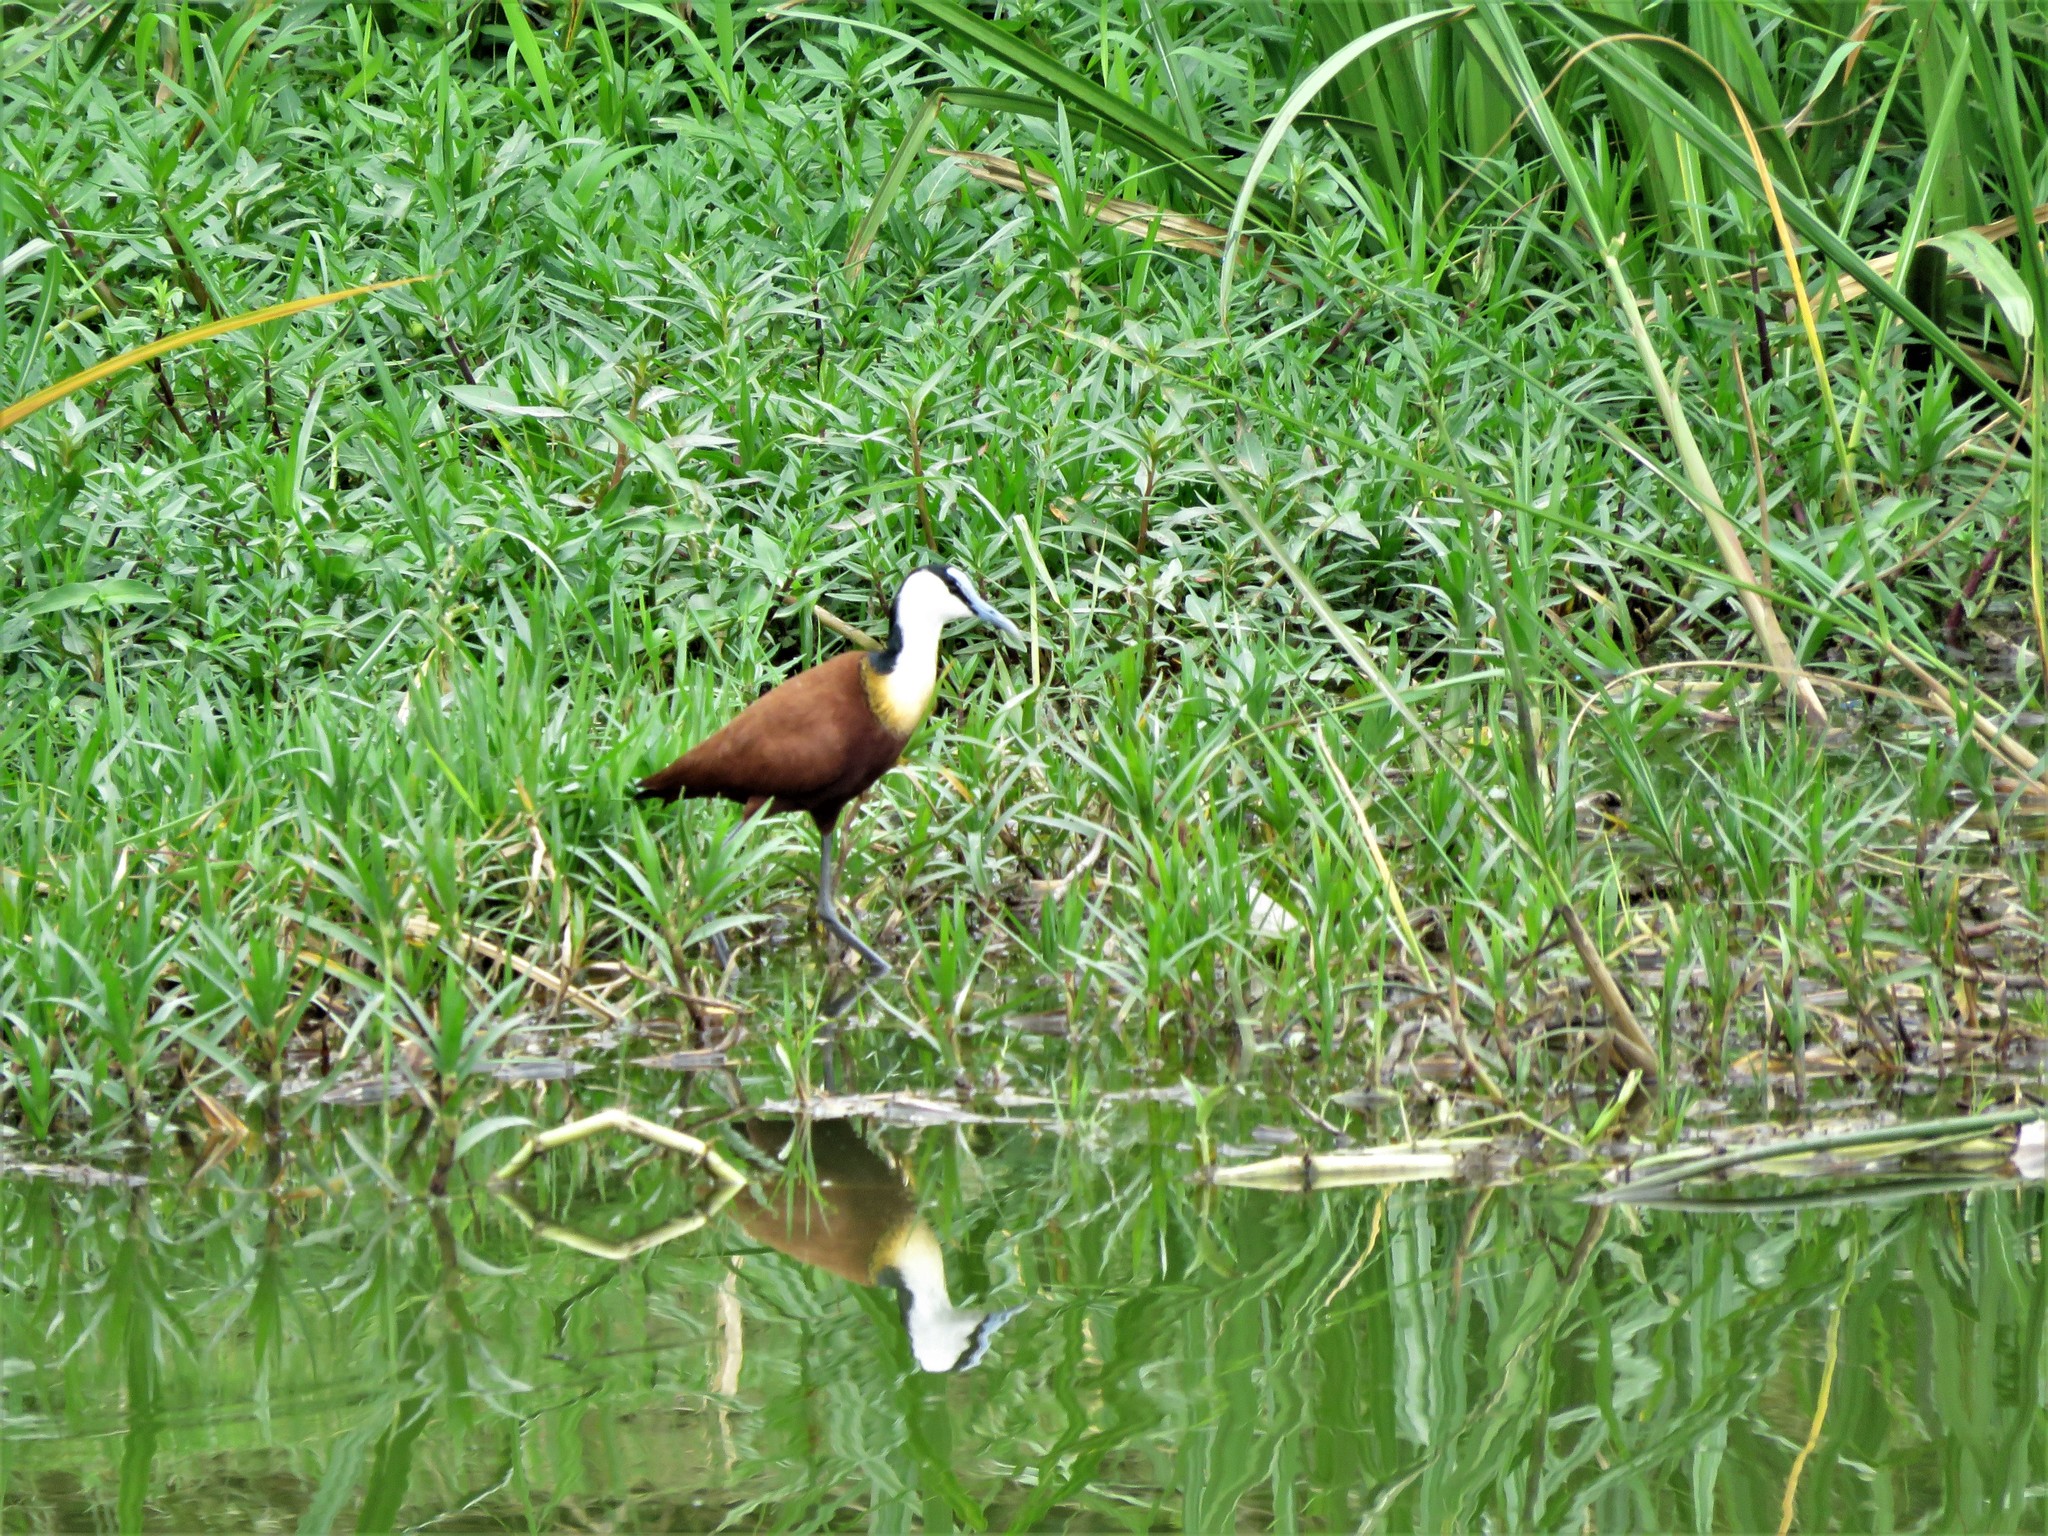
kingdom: Animalia
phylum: Chordata
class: Aves
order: Charadriiformes
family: Jacanidae
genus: Actophilornis
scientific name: Actophilornis africanus
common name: African jacana
